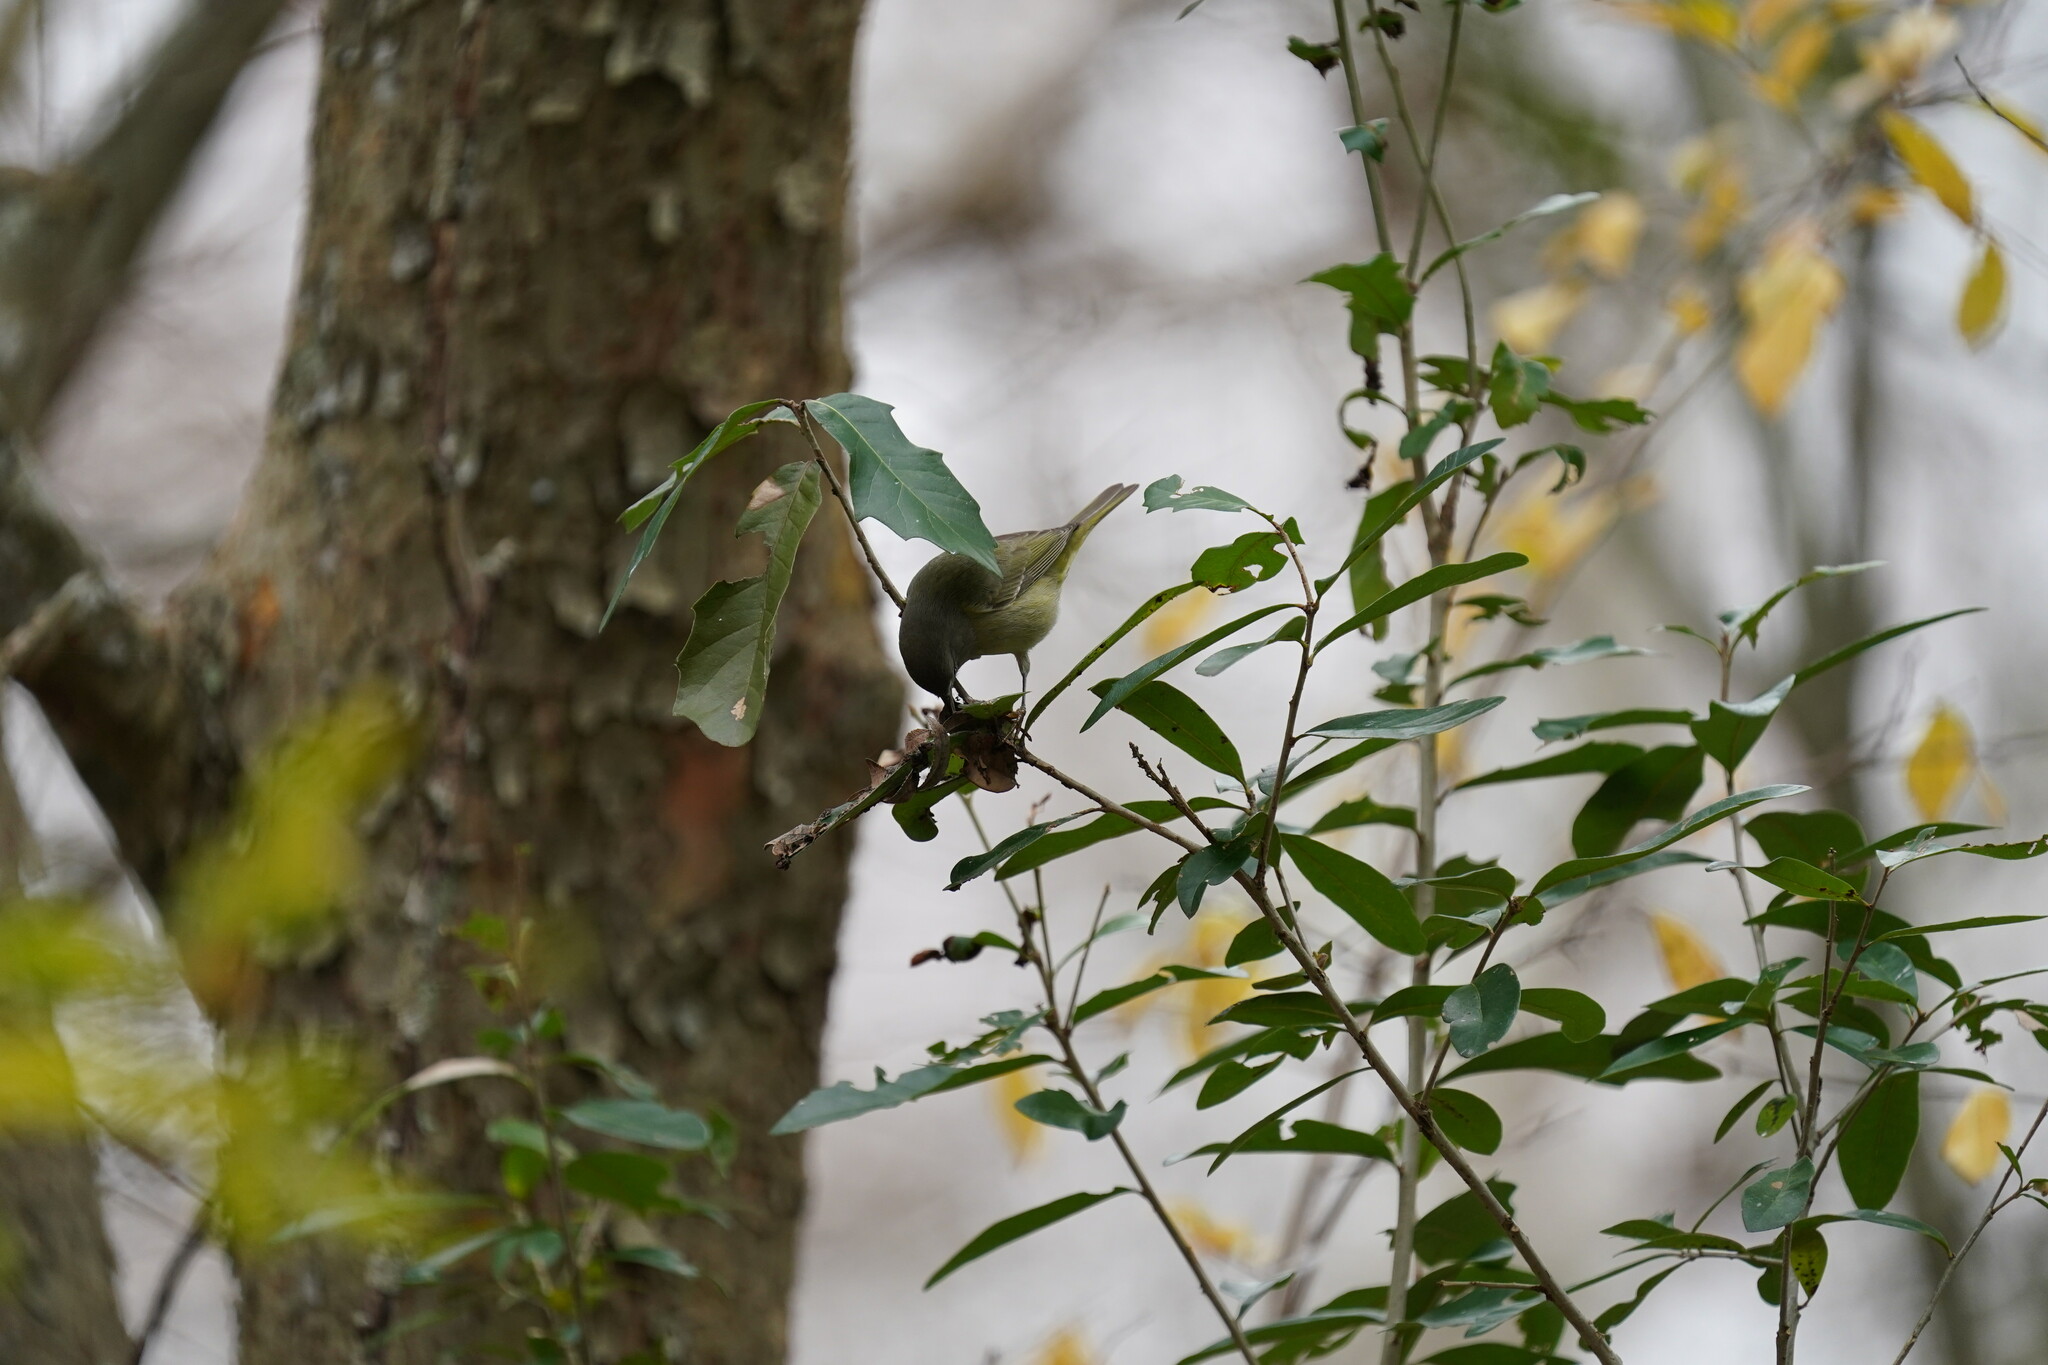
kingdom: Animalia
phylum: Chordata
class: Aves
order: Passeriformes
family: Parulidae
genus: Leiothlypis
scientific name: Leiothlypis celata
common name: Orange-crowned warbler
